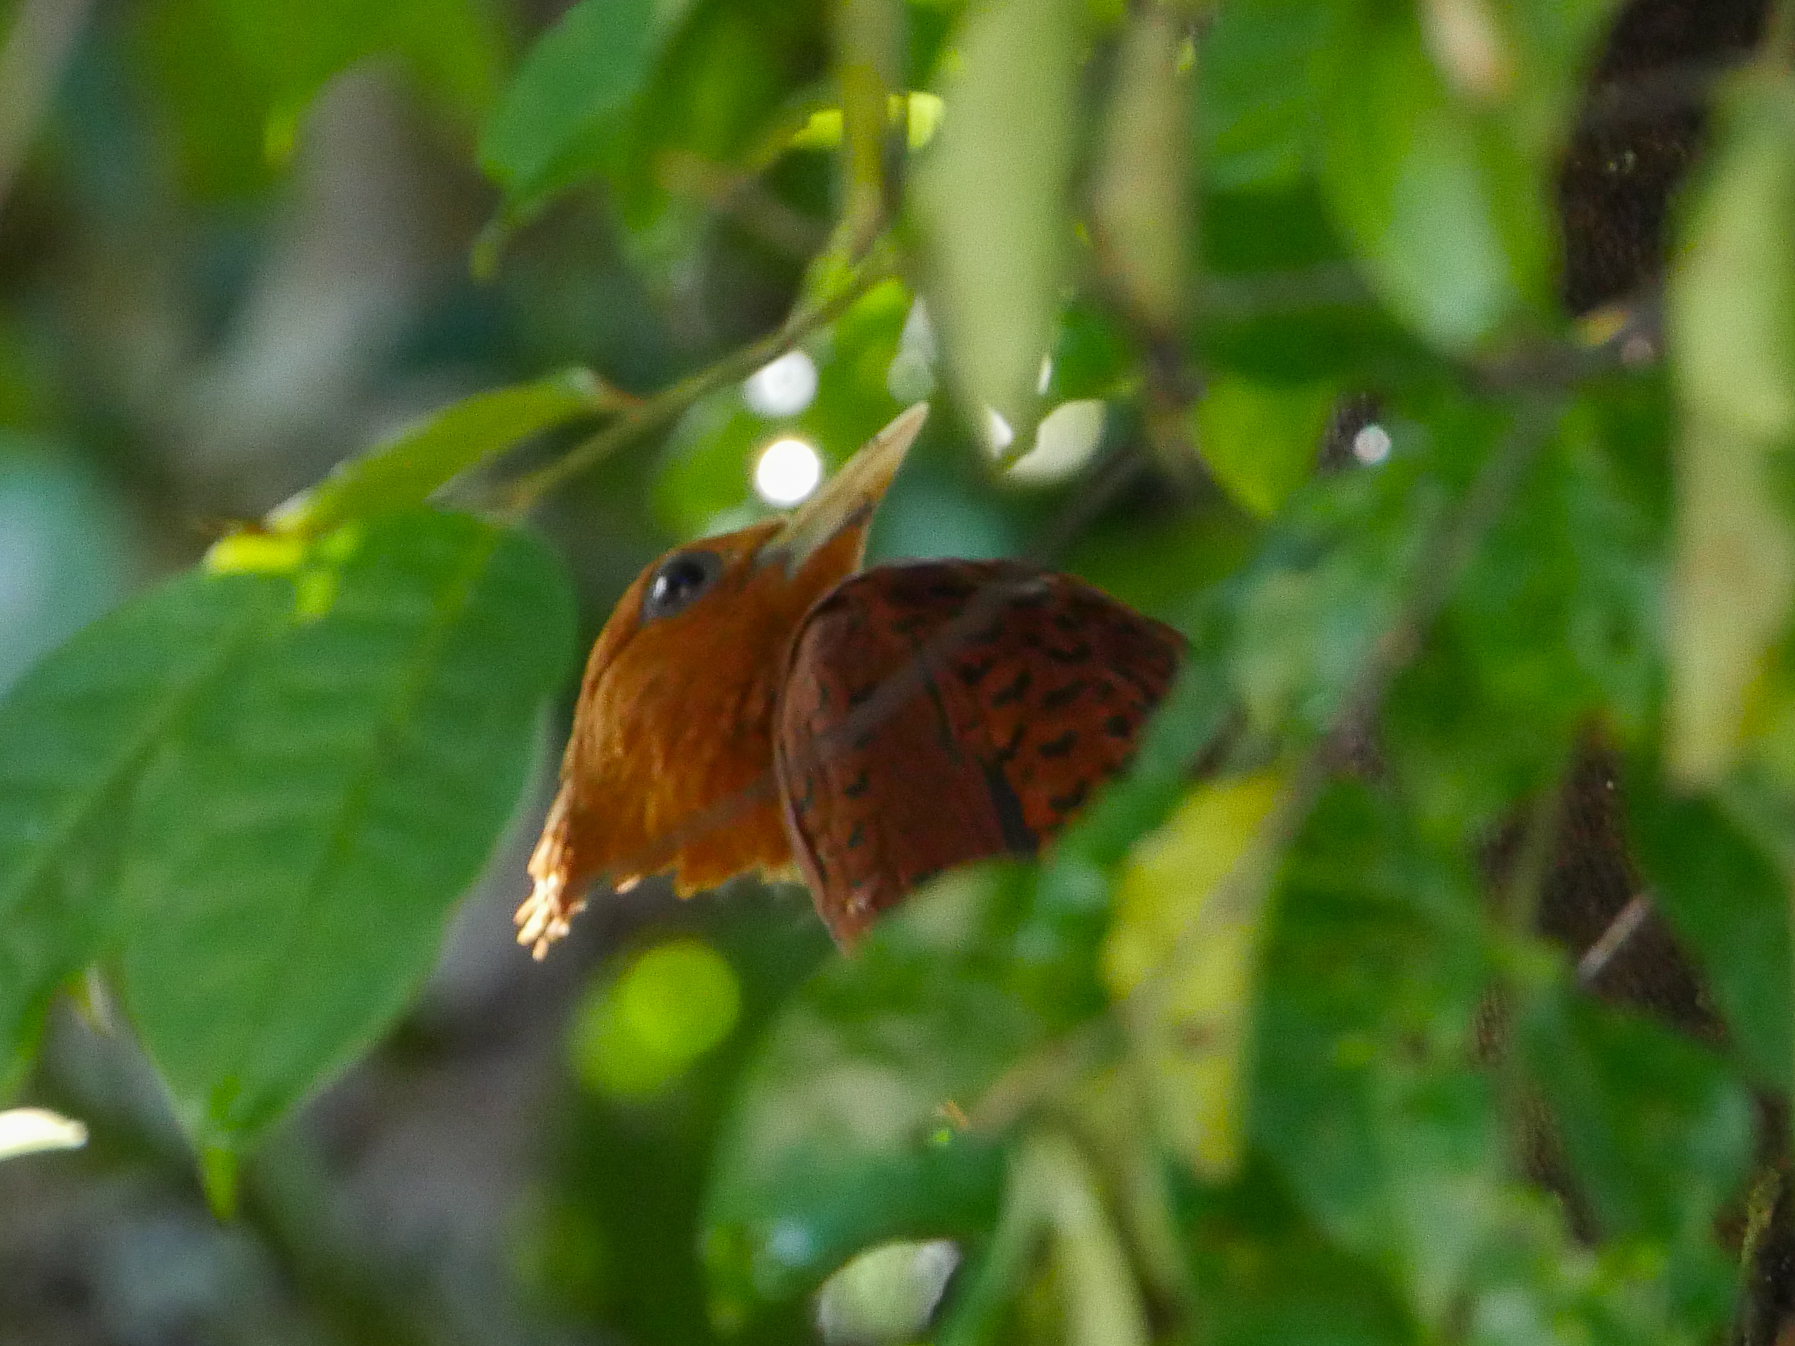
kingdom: Animalia
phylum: Chordata
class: Aves
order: Piciformes
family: Picidae
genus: Celeus
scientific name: Celeus castaneus
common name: Chestnut-colored woodpecker
